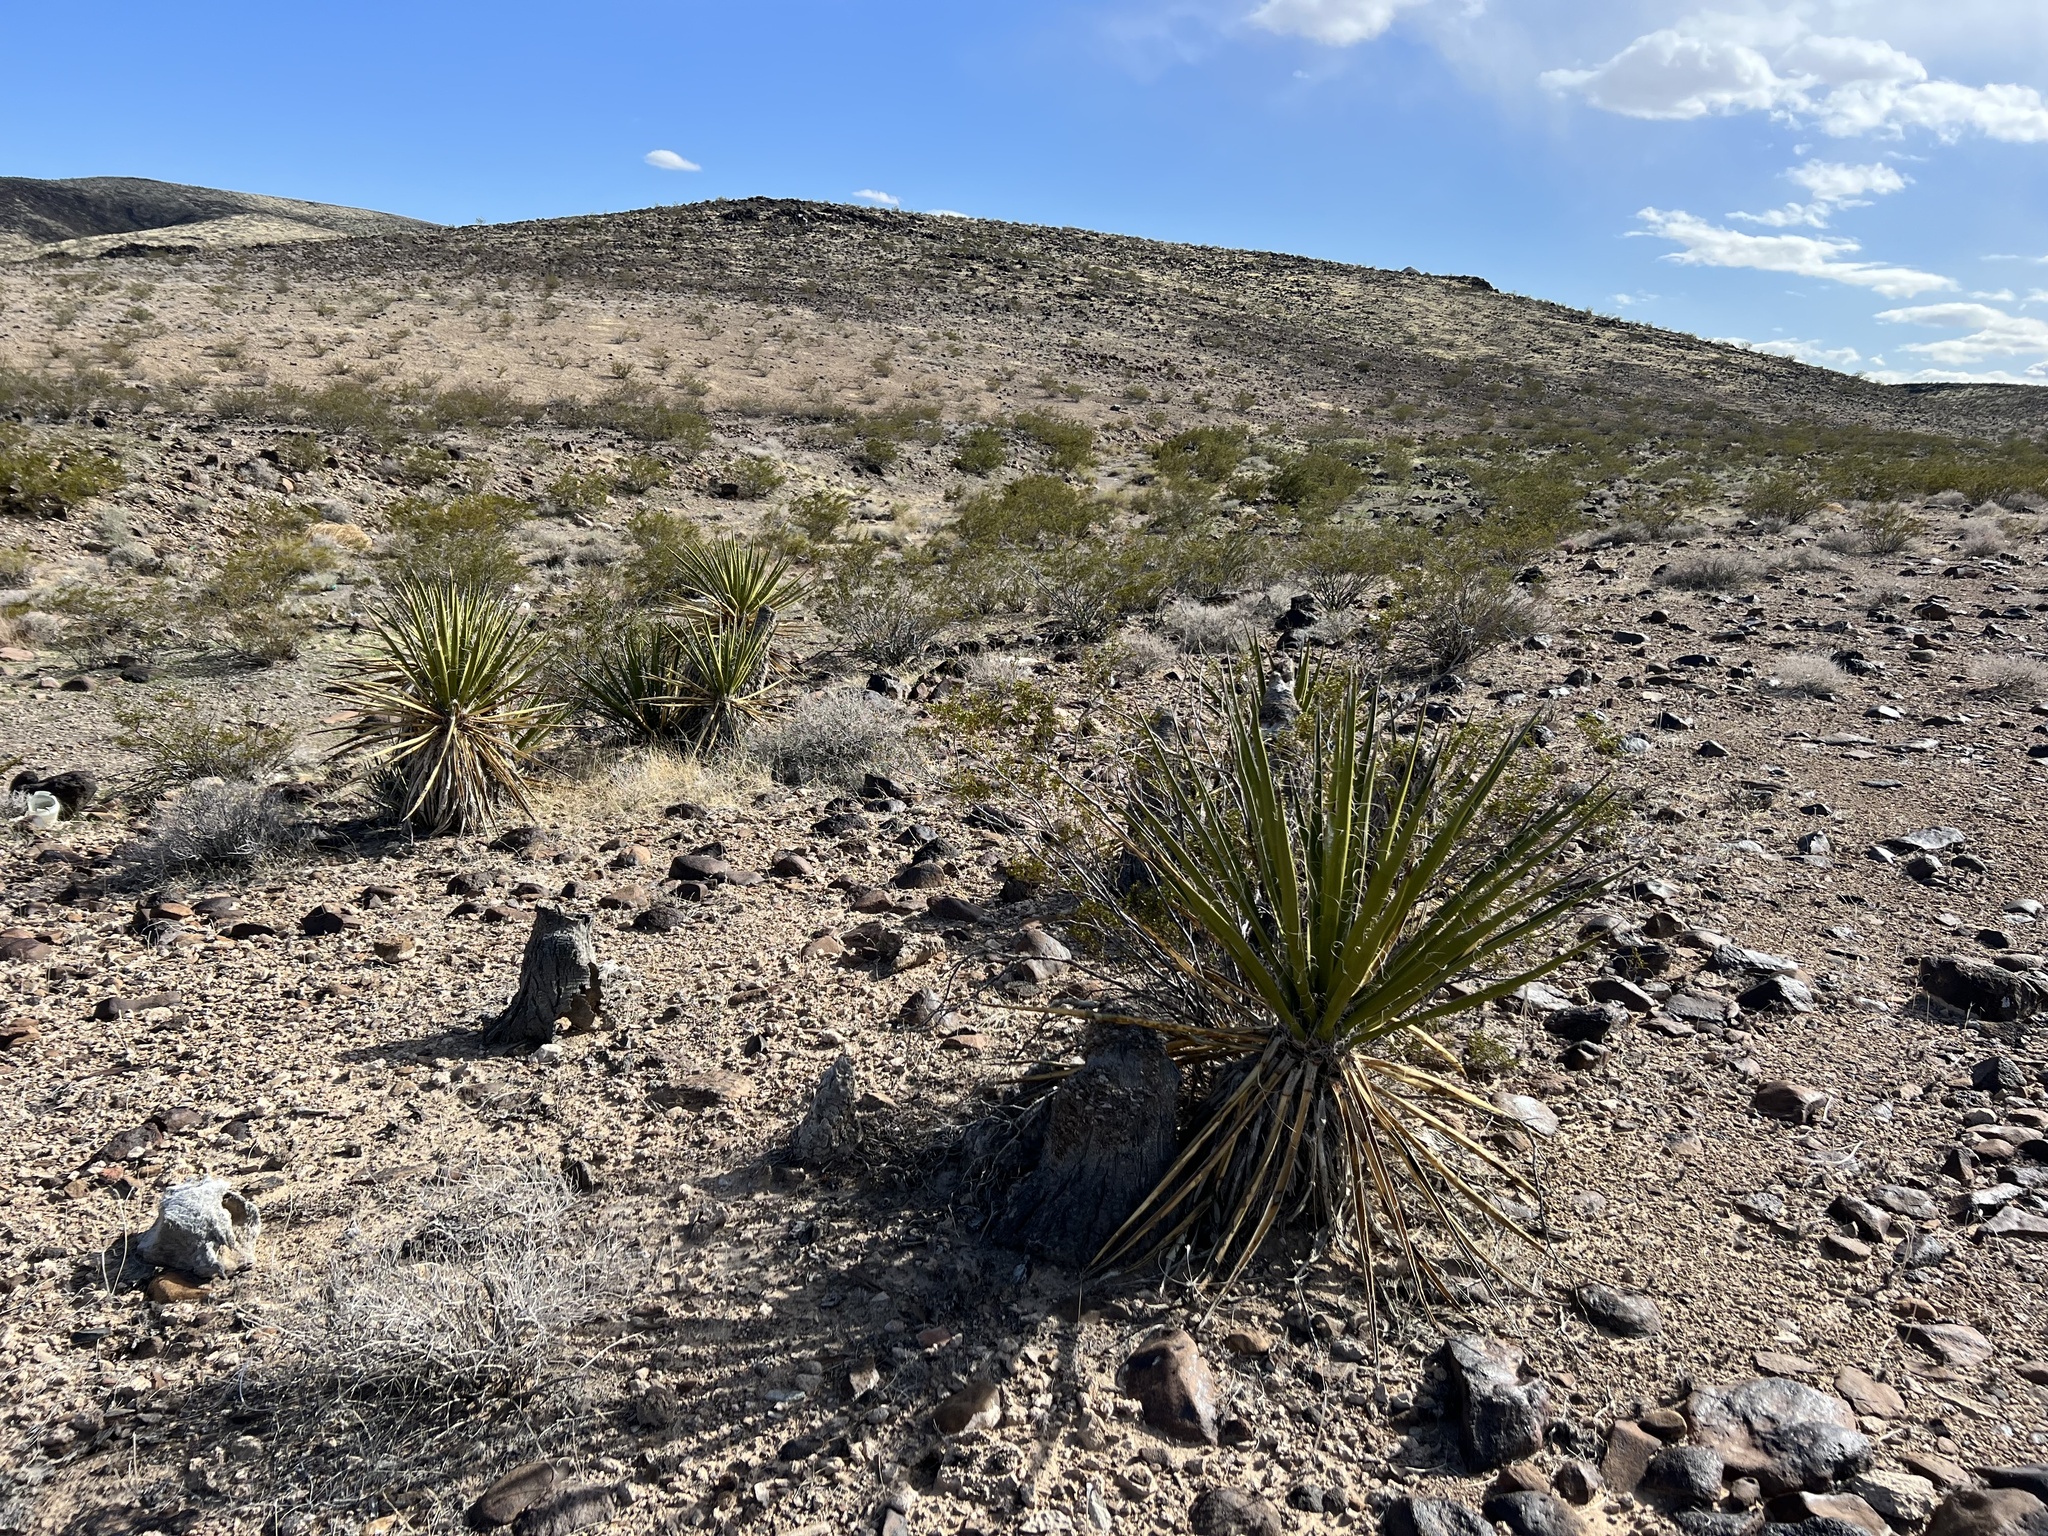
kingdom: Plantae
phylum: Tracheophyta
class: Liliopsida
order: Asparagales
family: Asparagaceae
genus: Yucca
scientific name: Yucca schidigera
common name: Mojave yucca
